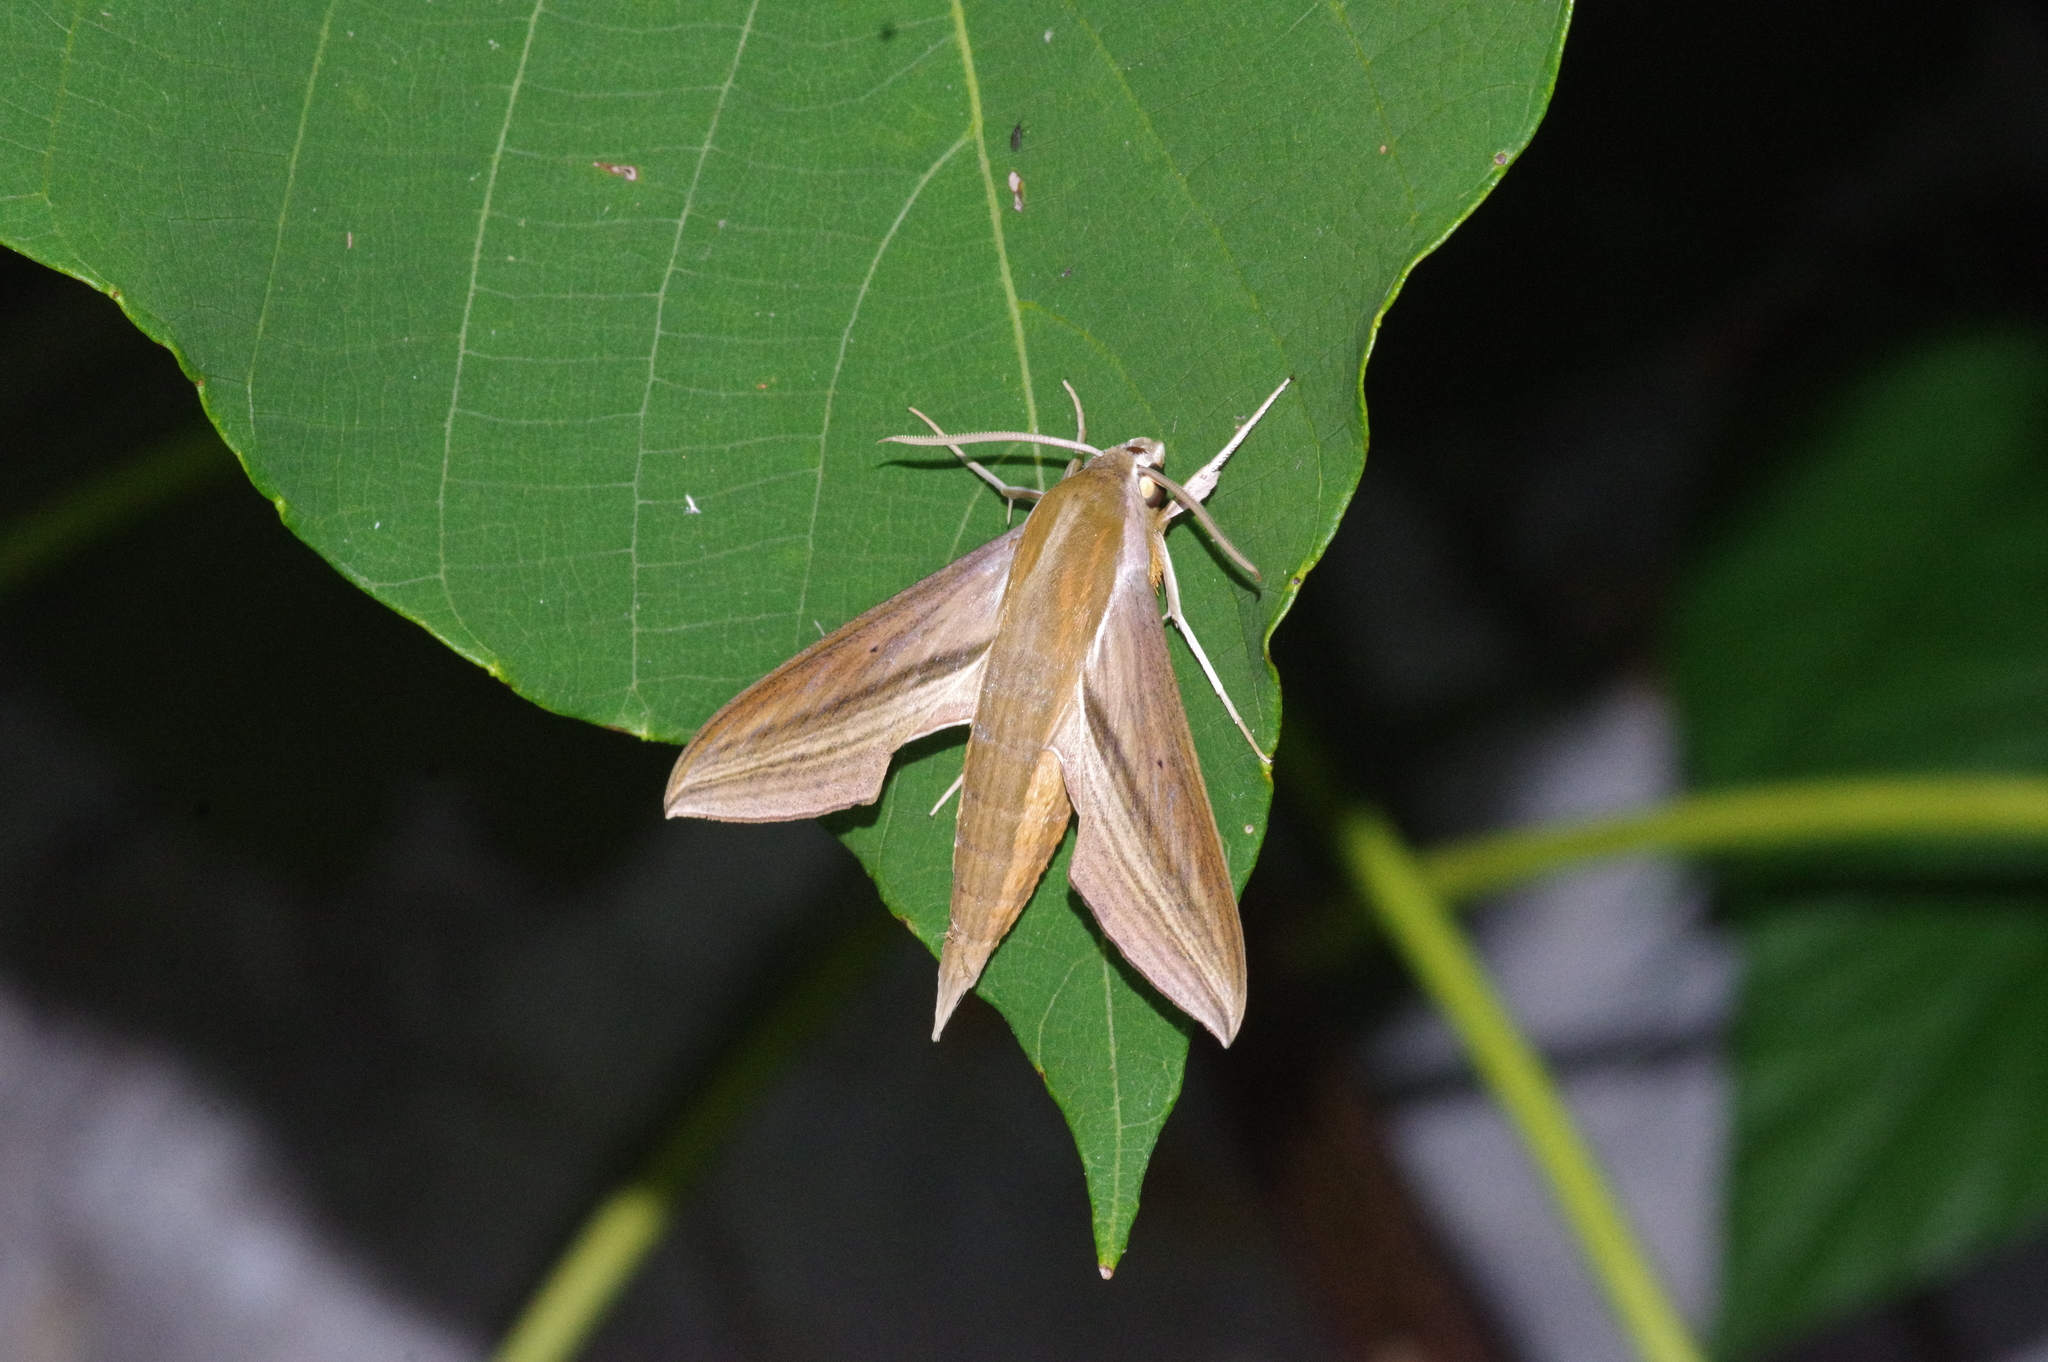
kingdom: Animalia
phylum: Arthropoda
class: Insecta
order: Lepidoptera
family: Sphingidae
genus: Theretra
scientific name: Theretra japonica
